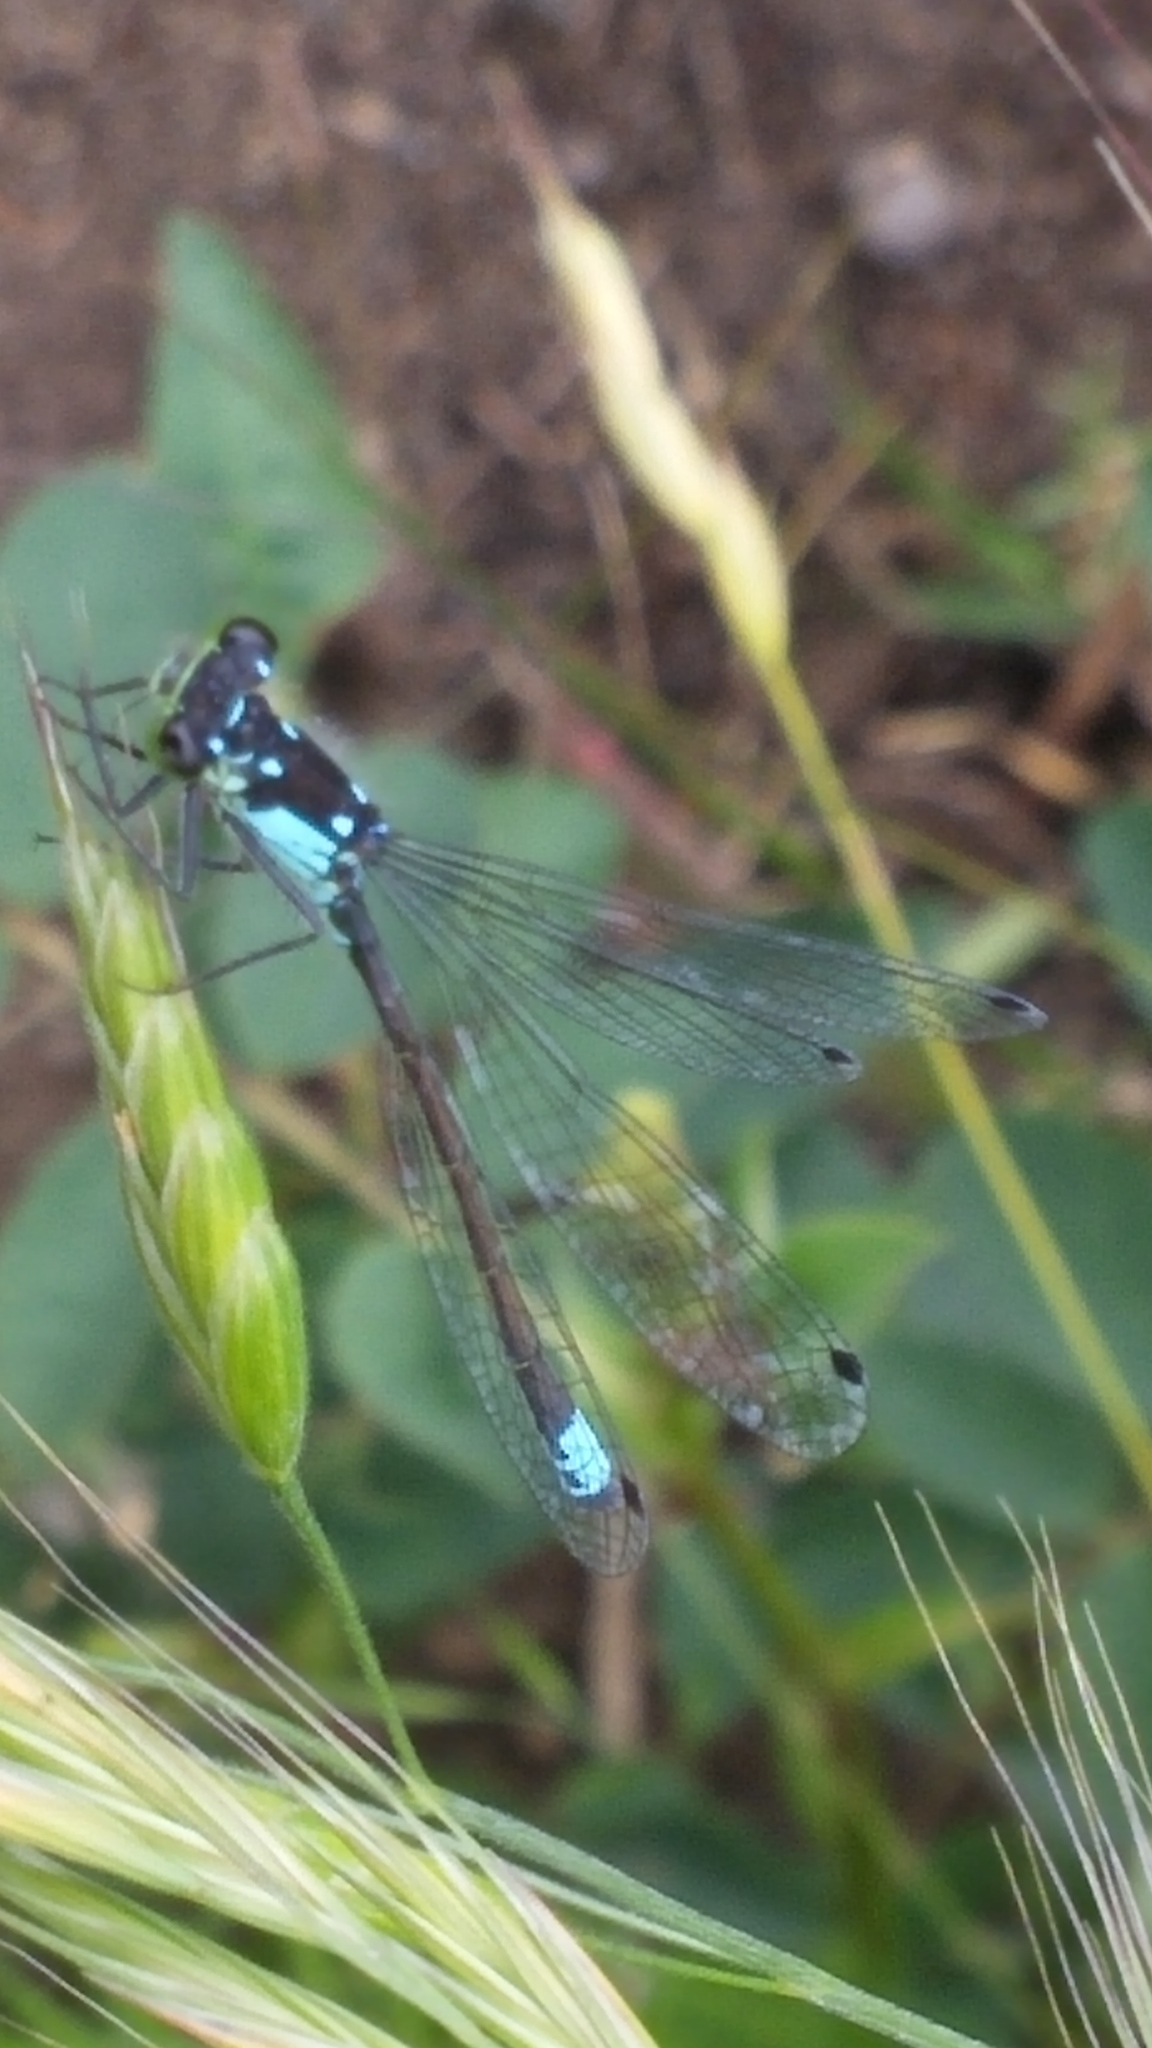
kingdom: Animalia
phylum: Arthropoda
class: Insecta
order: Odonata
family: Coenagrionidae
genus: Ischnura
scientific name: Ischnura cervula
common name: Pacific forktail
